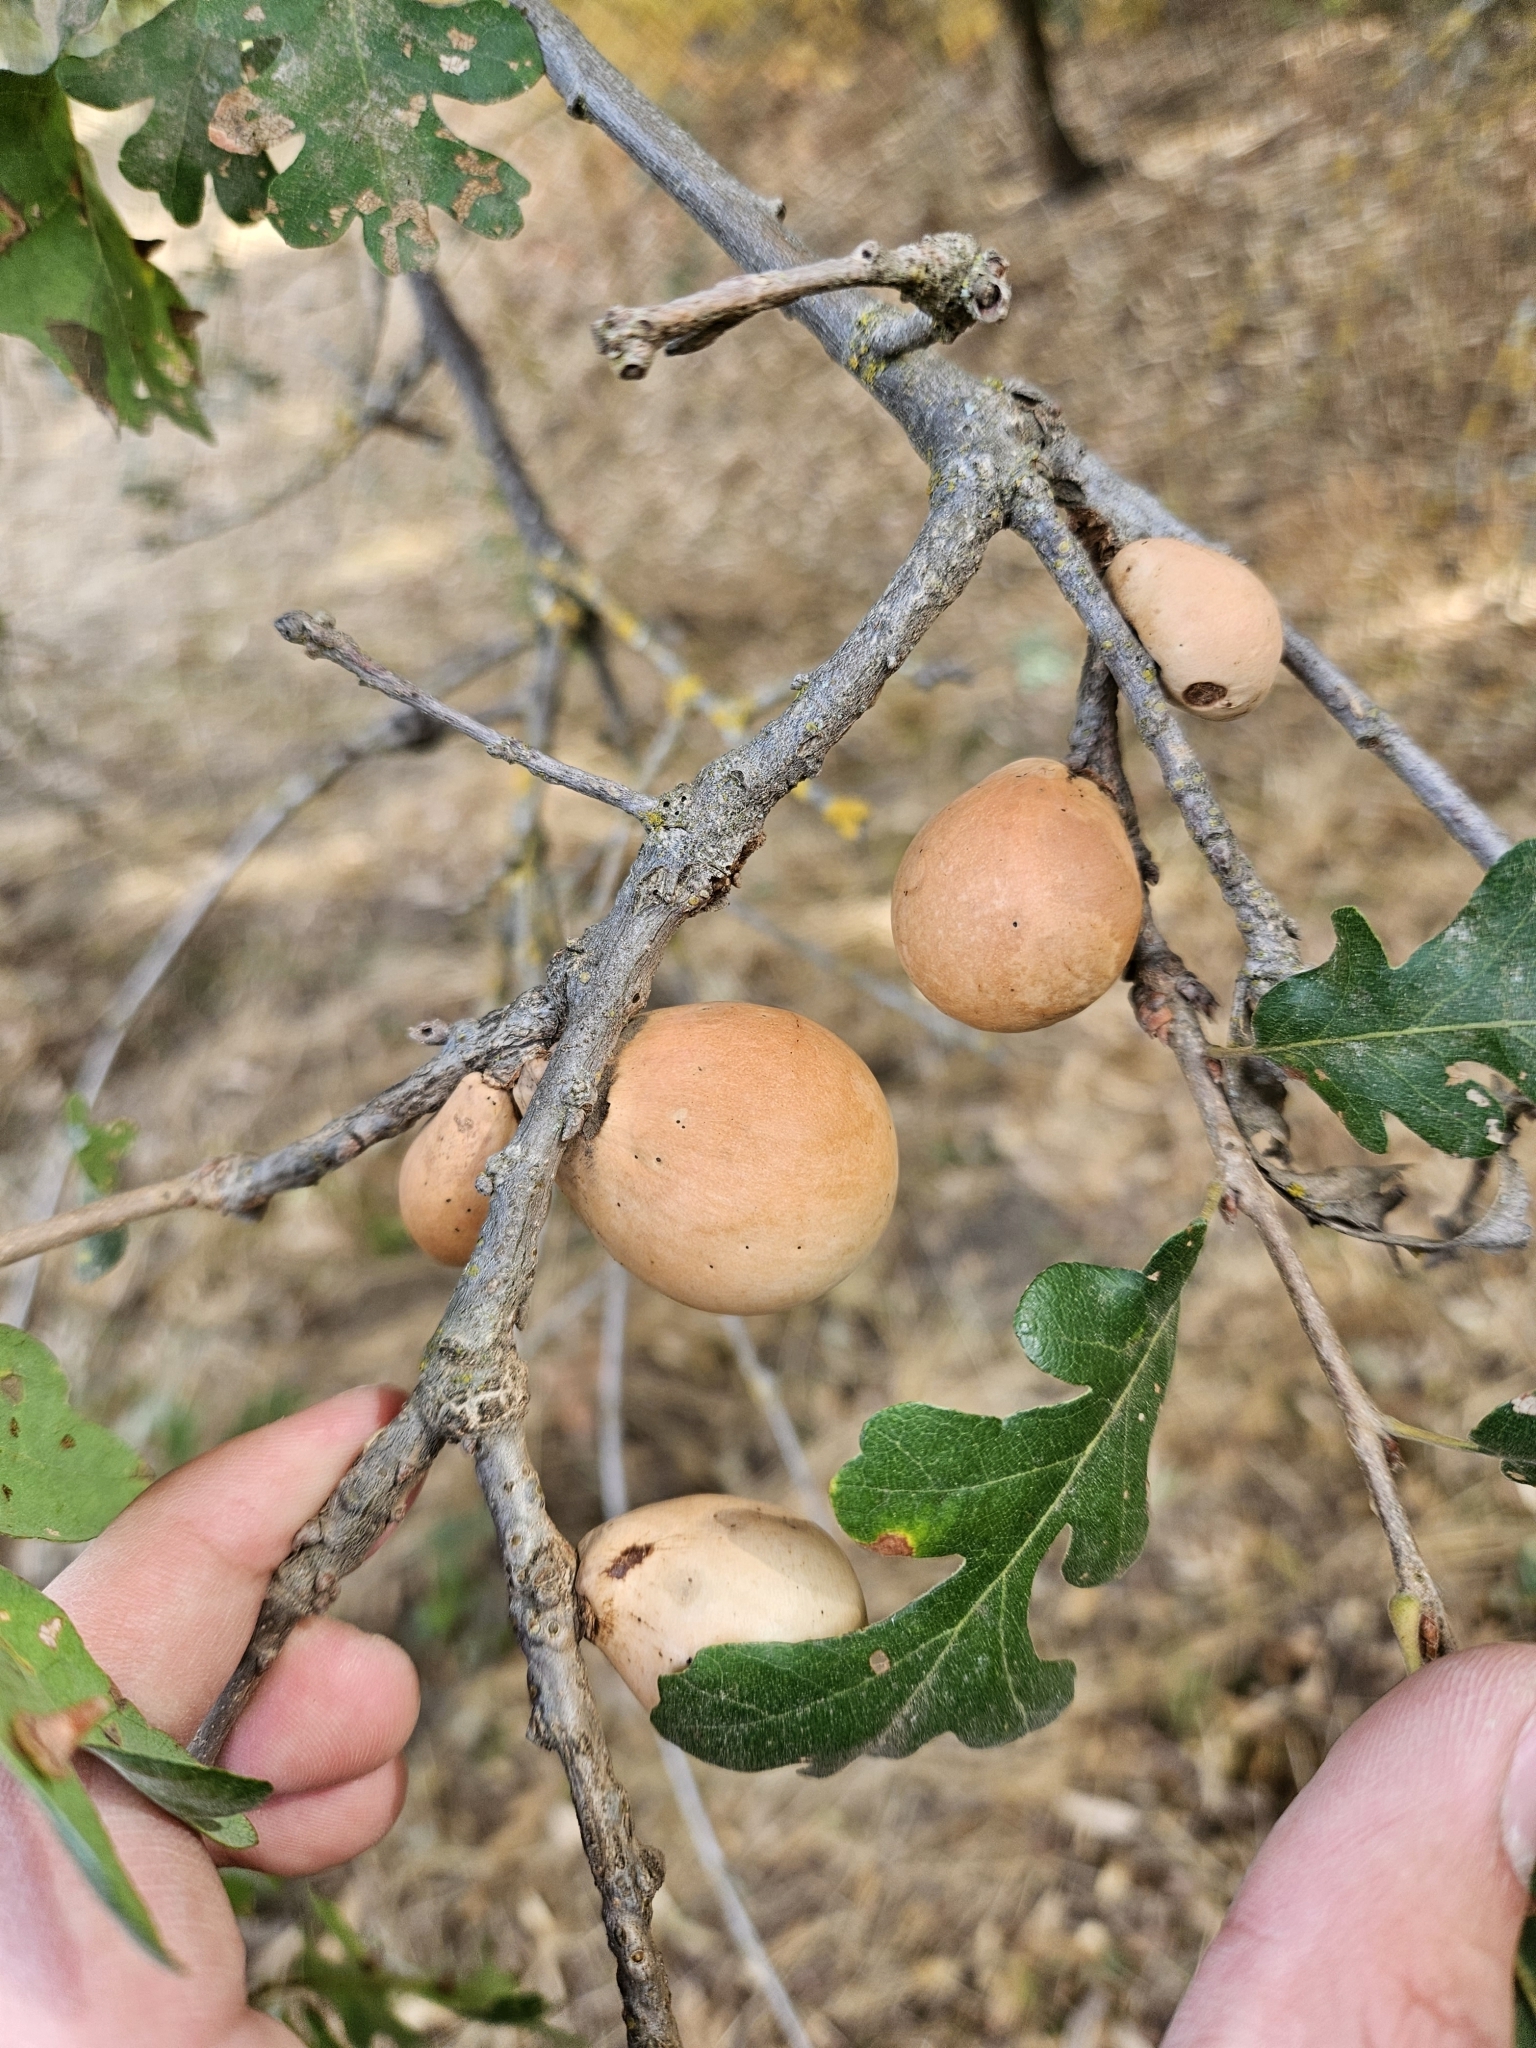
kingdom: Animalia
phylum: Arthropoda
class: Insecta
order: Hymenoptera
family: Cynipidae
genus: Andricus
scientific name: Andricus quercuscalifornicus
